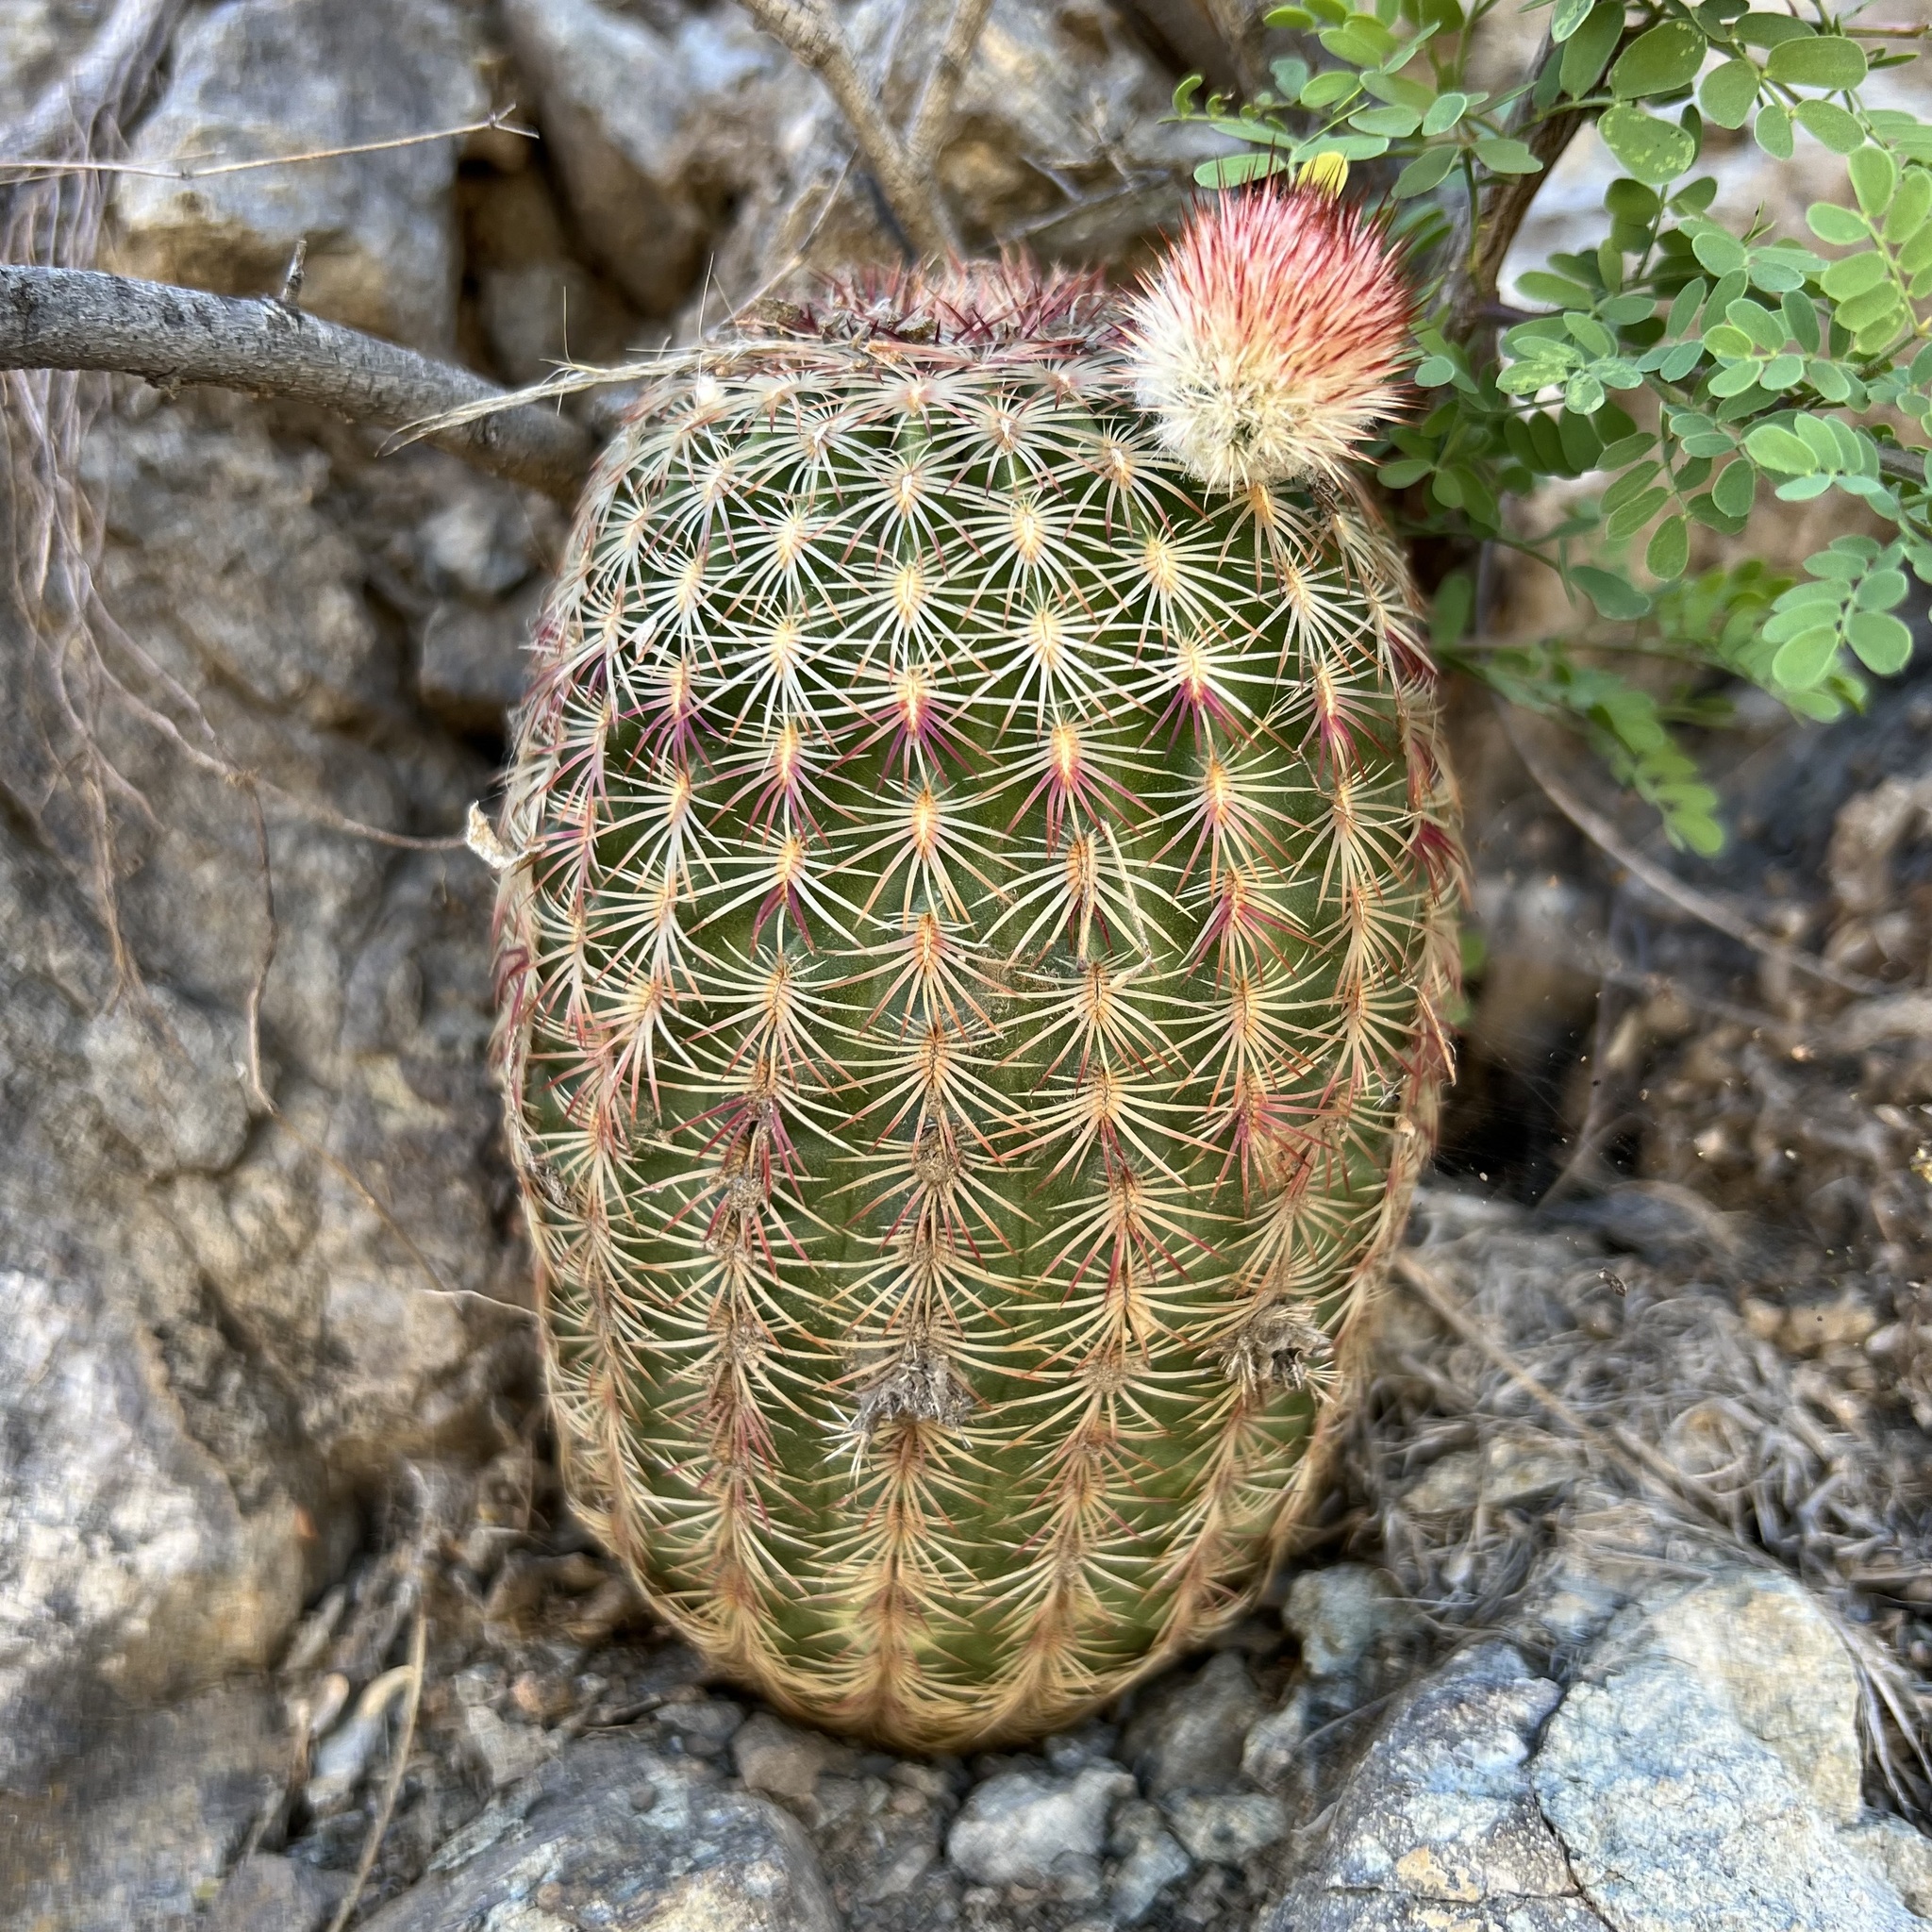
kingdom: Plantae
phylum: Tracheophyta
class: Magnoliopsida
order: Caryophyllales
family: Cactaceae
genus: Echinocereus
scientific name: Echinocereus rigidissimus
